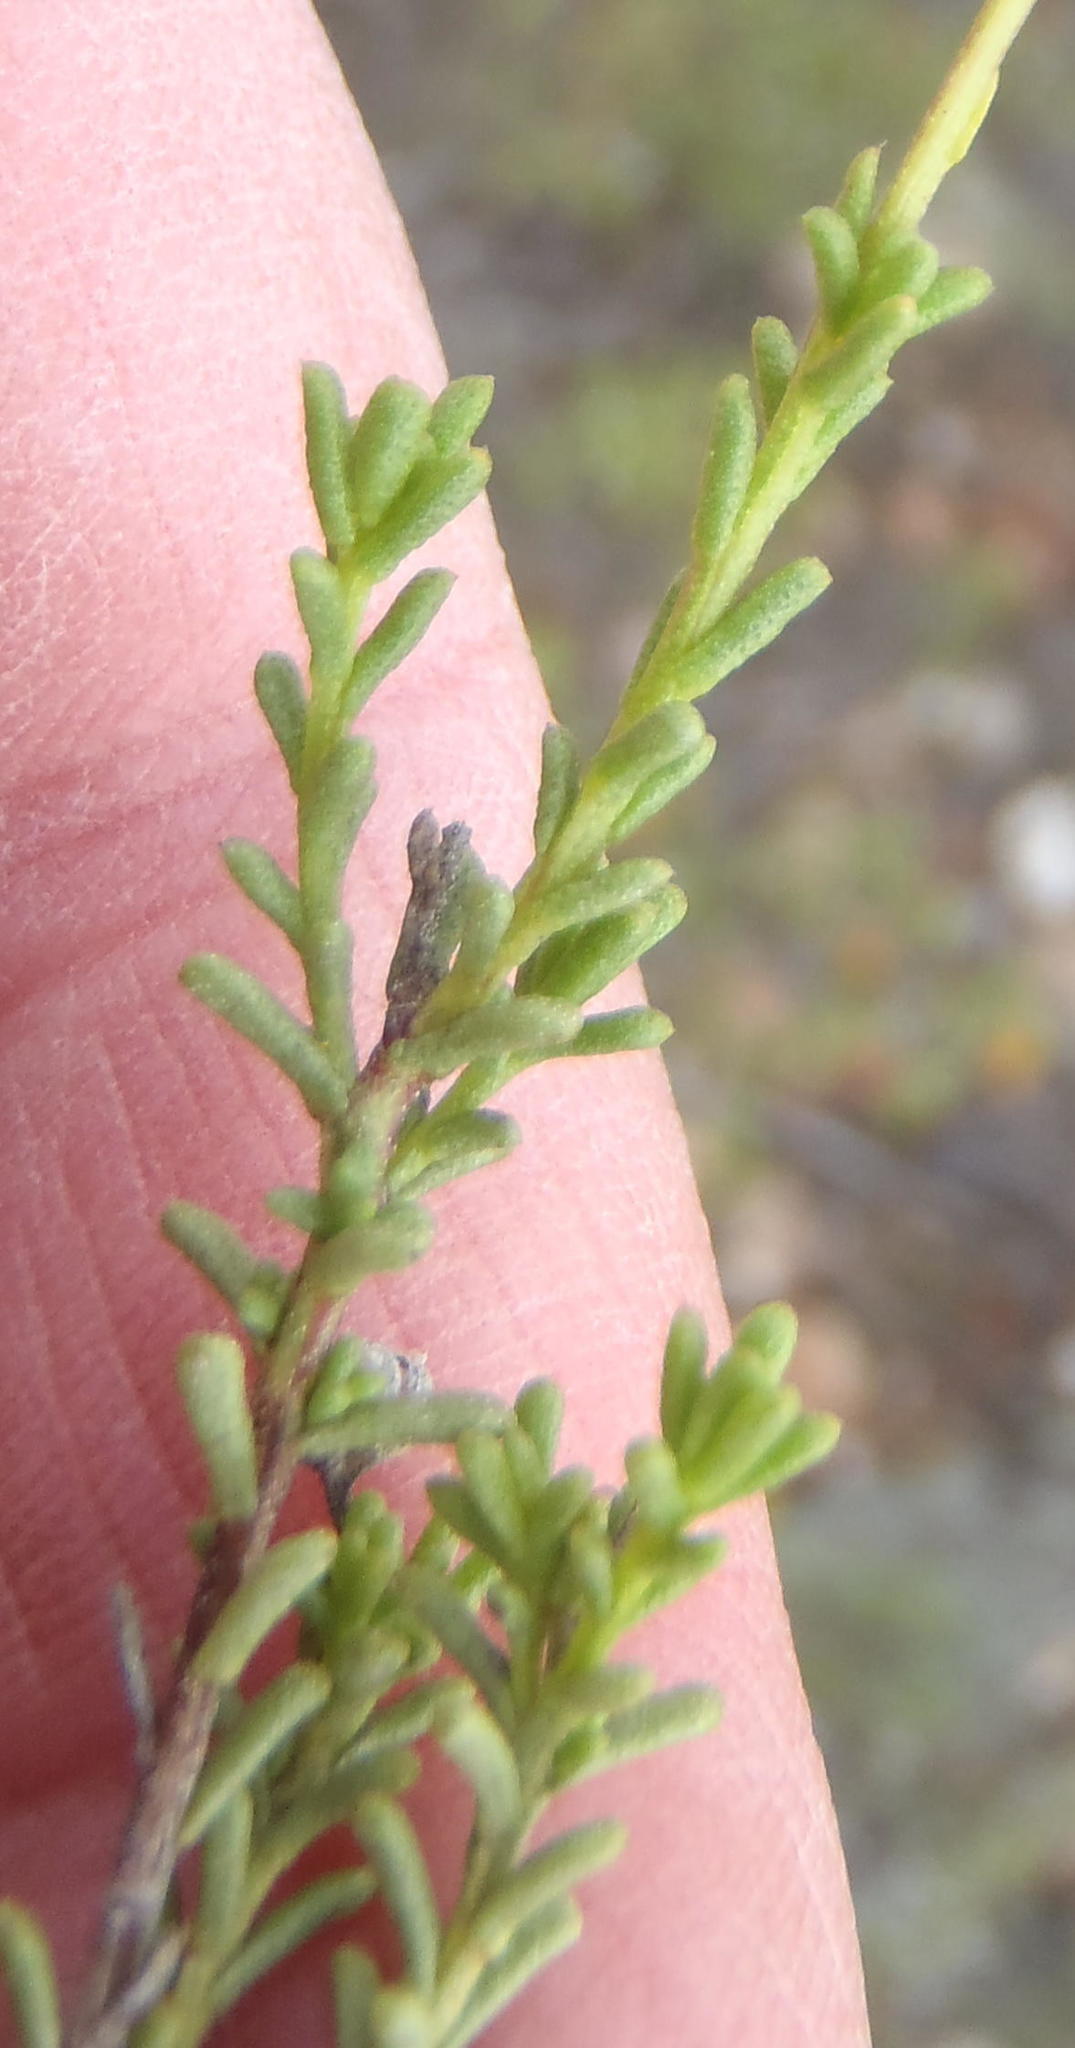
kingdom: Plantae
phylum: Tracheophyta
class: Magnoliopsida
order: Asterales
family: Asteraceae
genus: Cymbopappus
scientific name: Cymbopappus adenosolen
